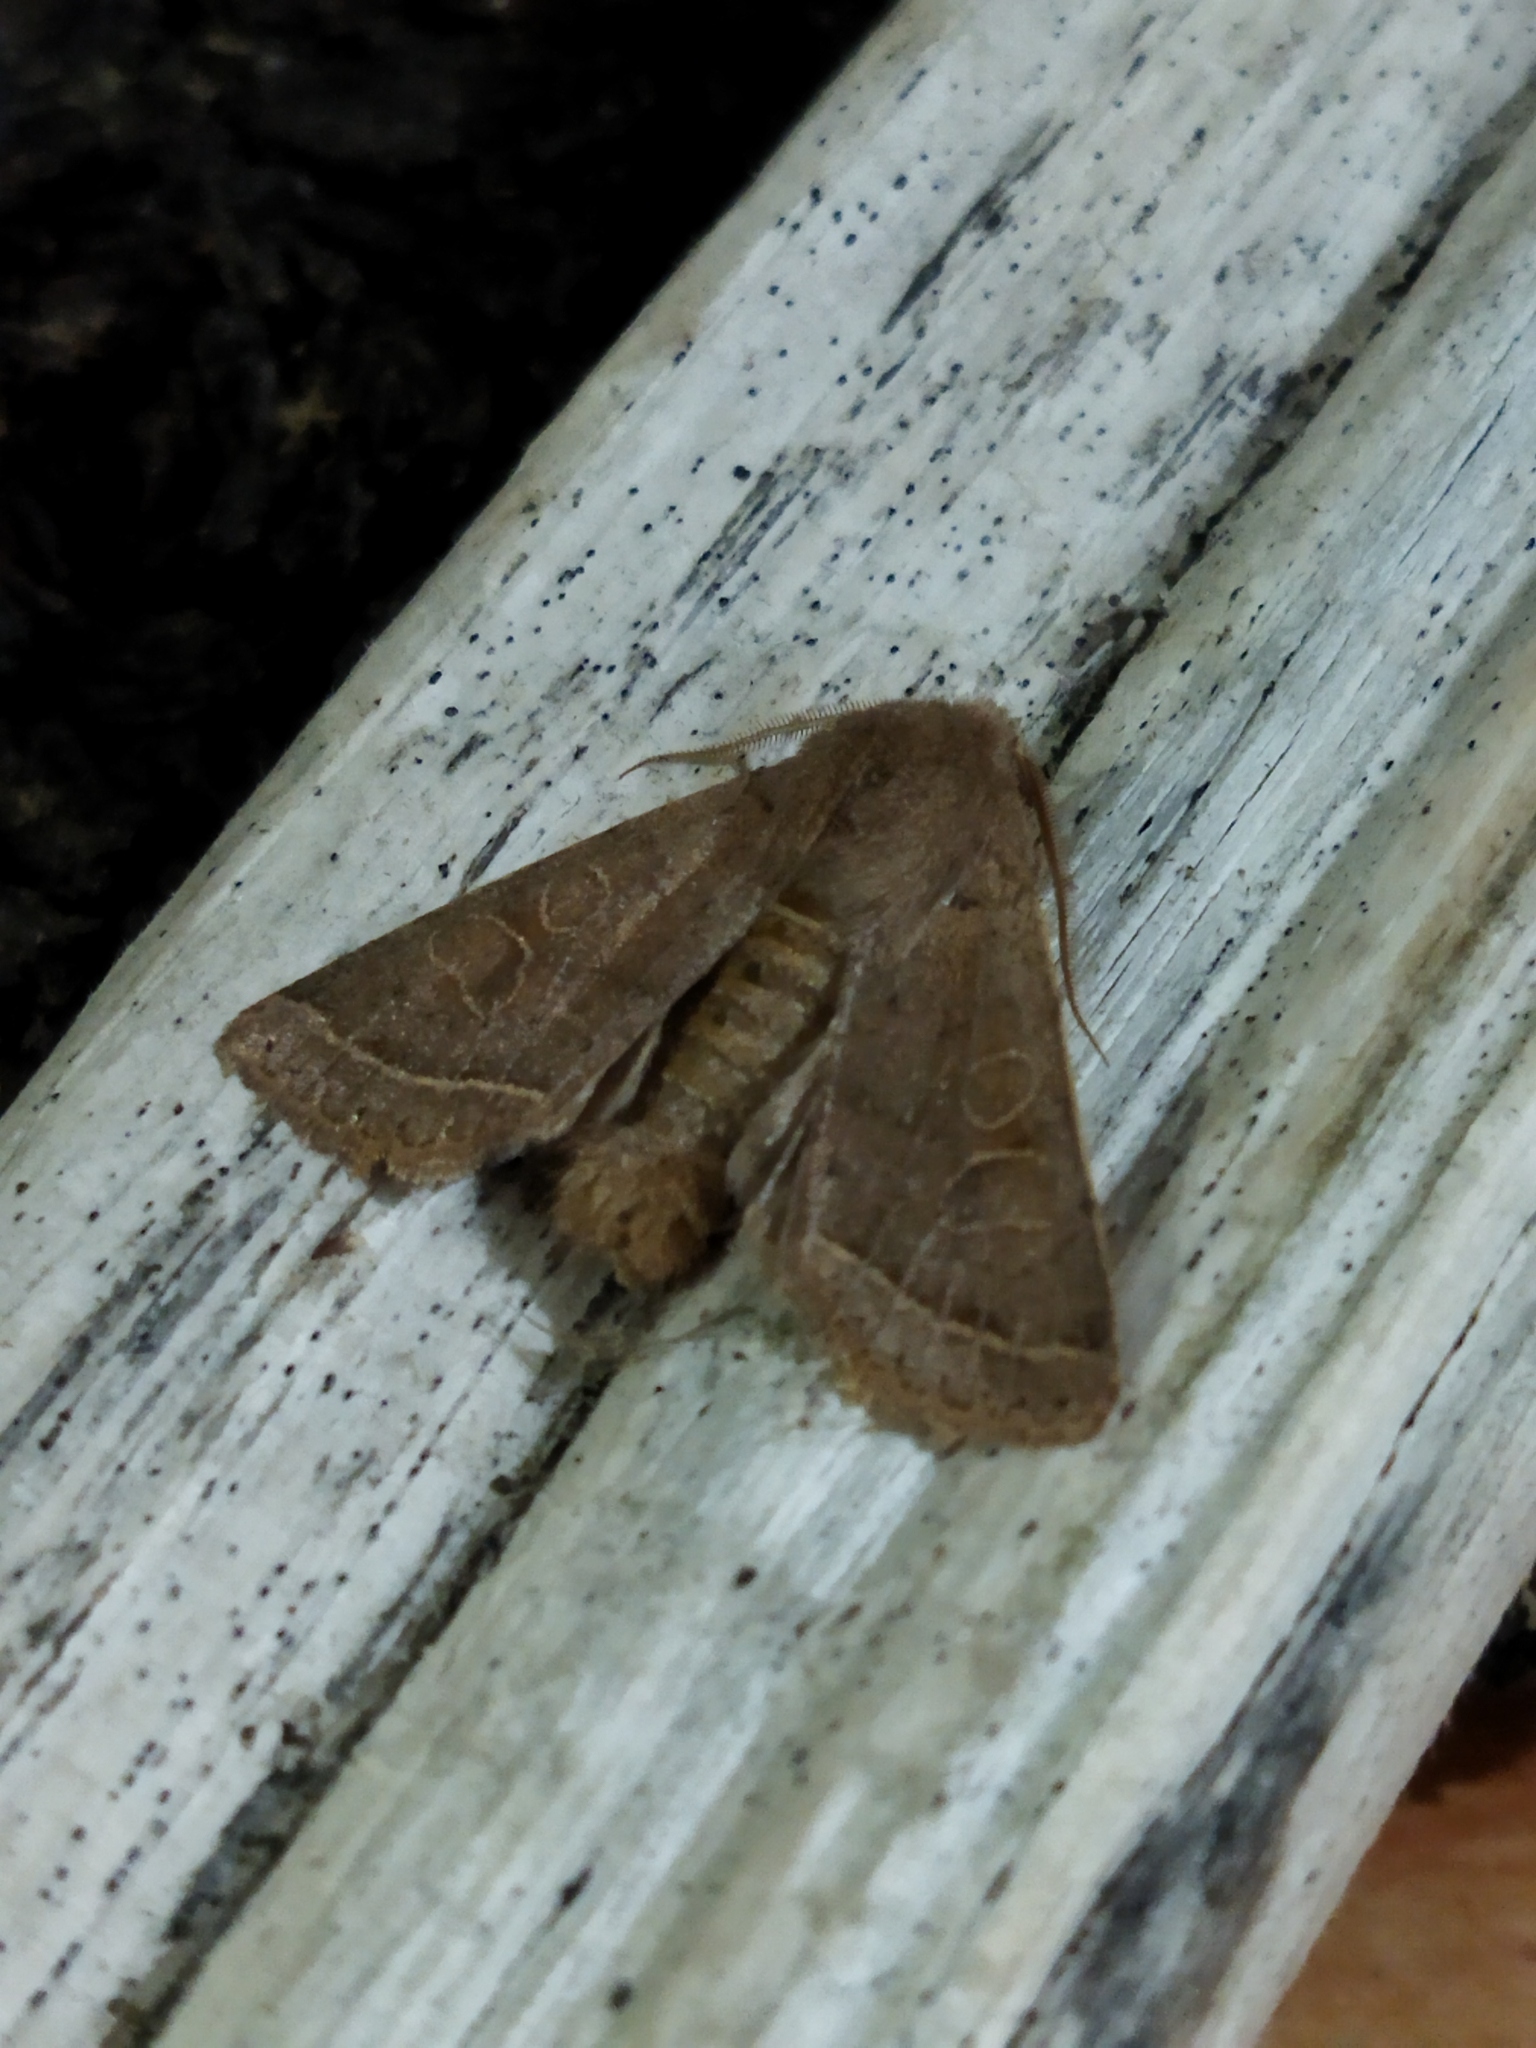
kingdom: Animalia
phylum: Arthropoda
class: Insecta
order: Lepidoptera
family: Noctuidae
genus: Orthosia
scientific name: Orthosia cerasi
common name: Common quaker
